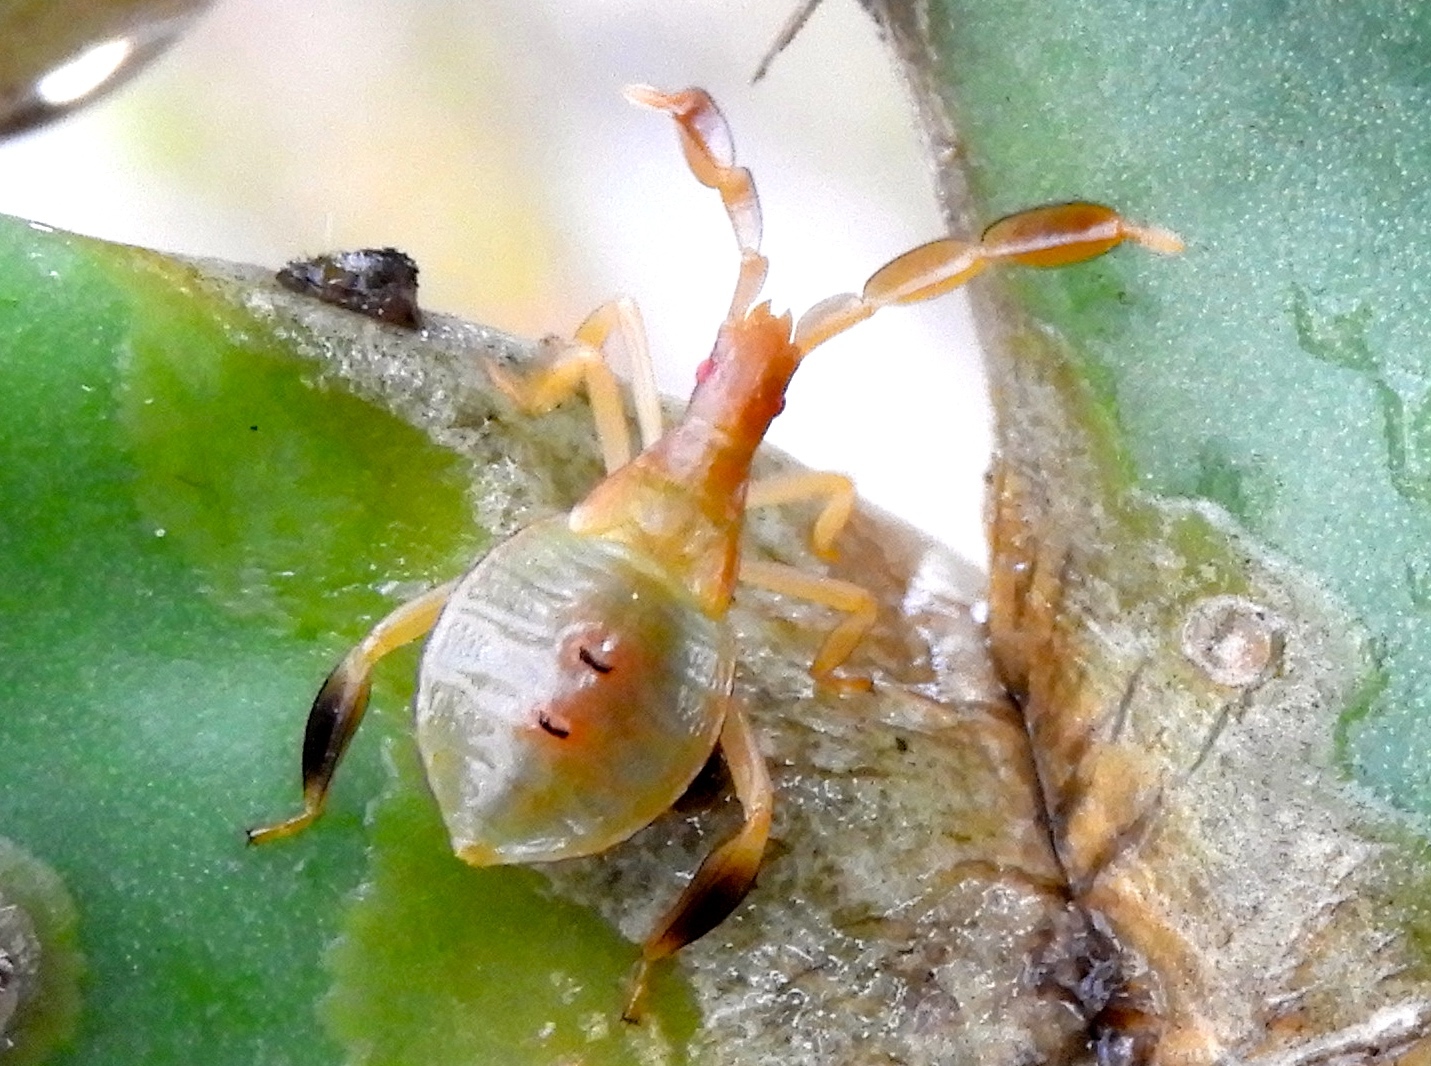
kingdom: Animalia
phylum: Arthropoda
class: Insecta
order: Hemiptera
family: Coreidae
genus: Chelinidea
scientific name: Chelinidea
